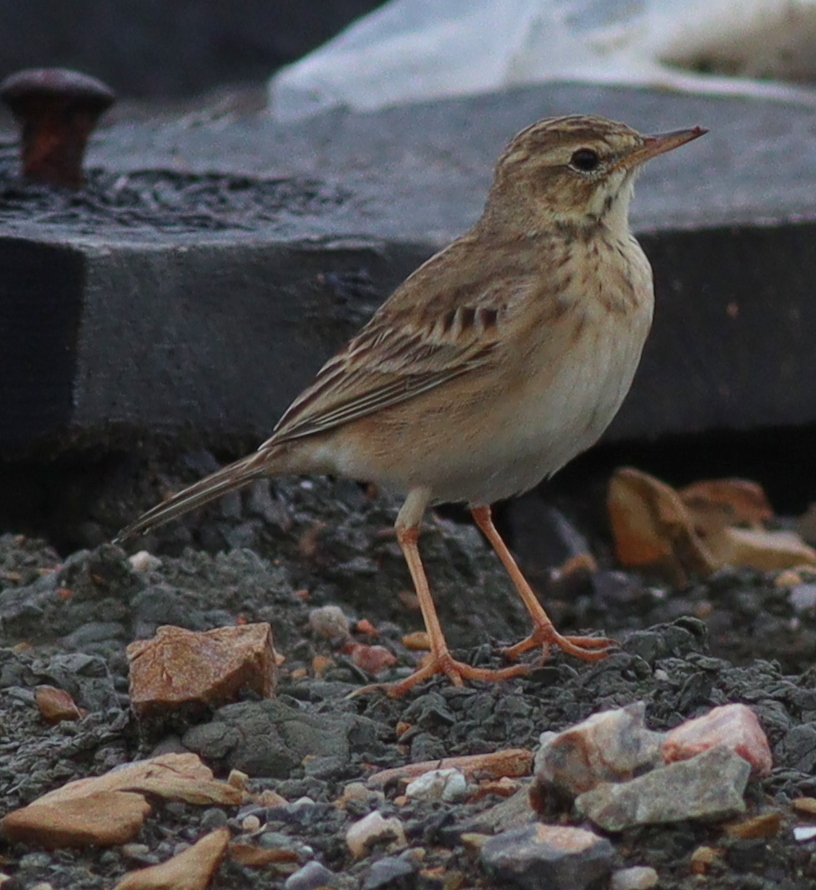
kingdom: Animalia
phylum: Chordata
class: Aves
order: Passeriformes
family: Motacillidae
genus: Anthus
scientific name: Anthus rufulus
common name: Paddyfield pipit
